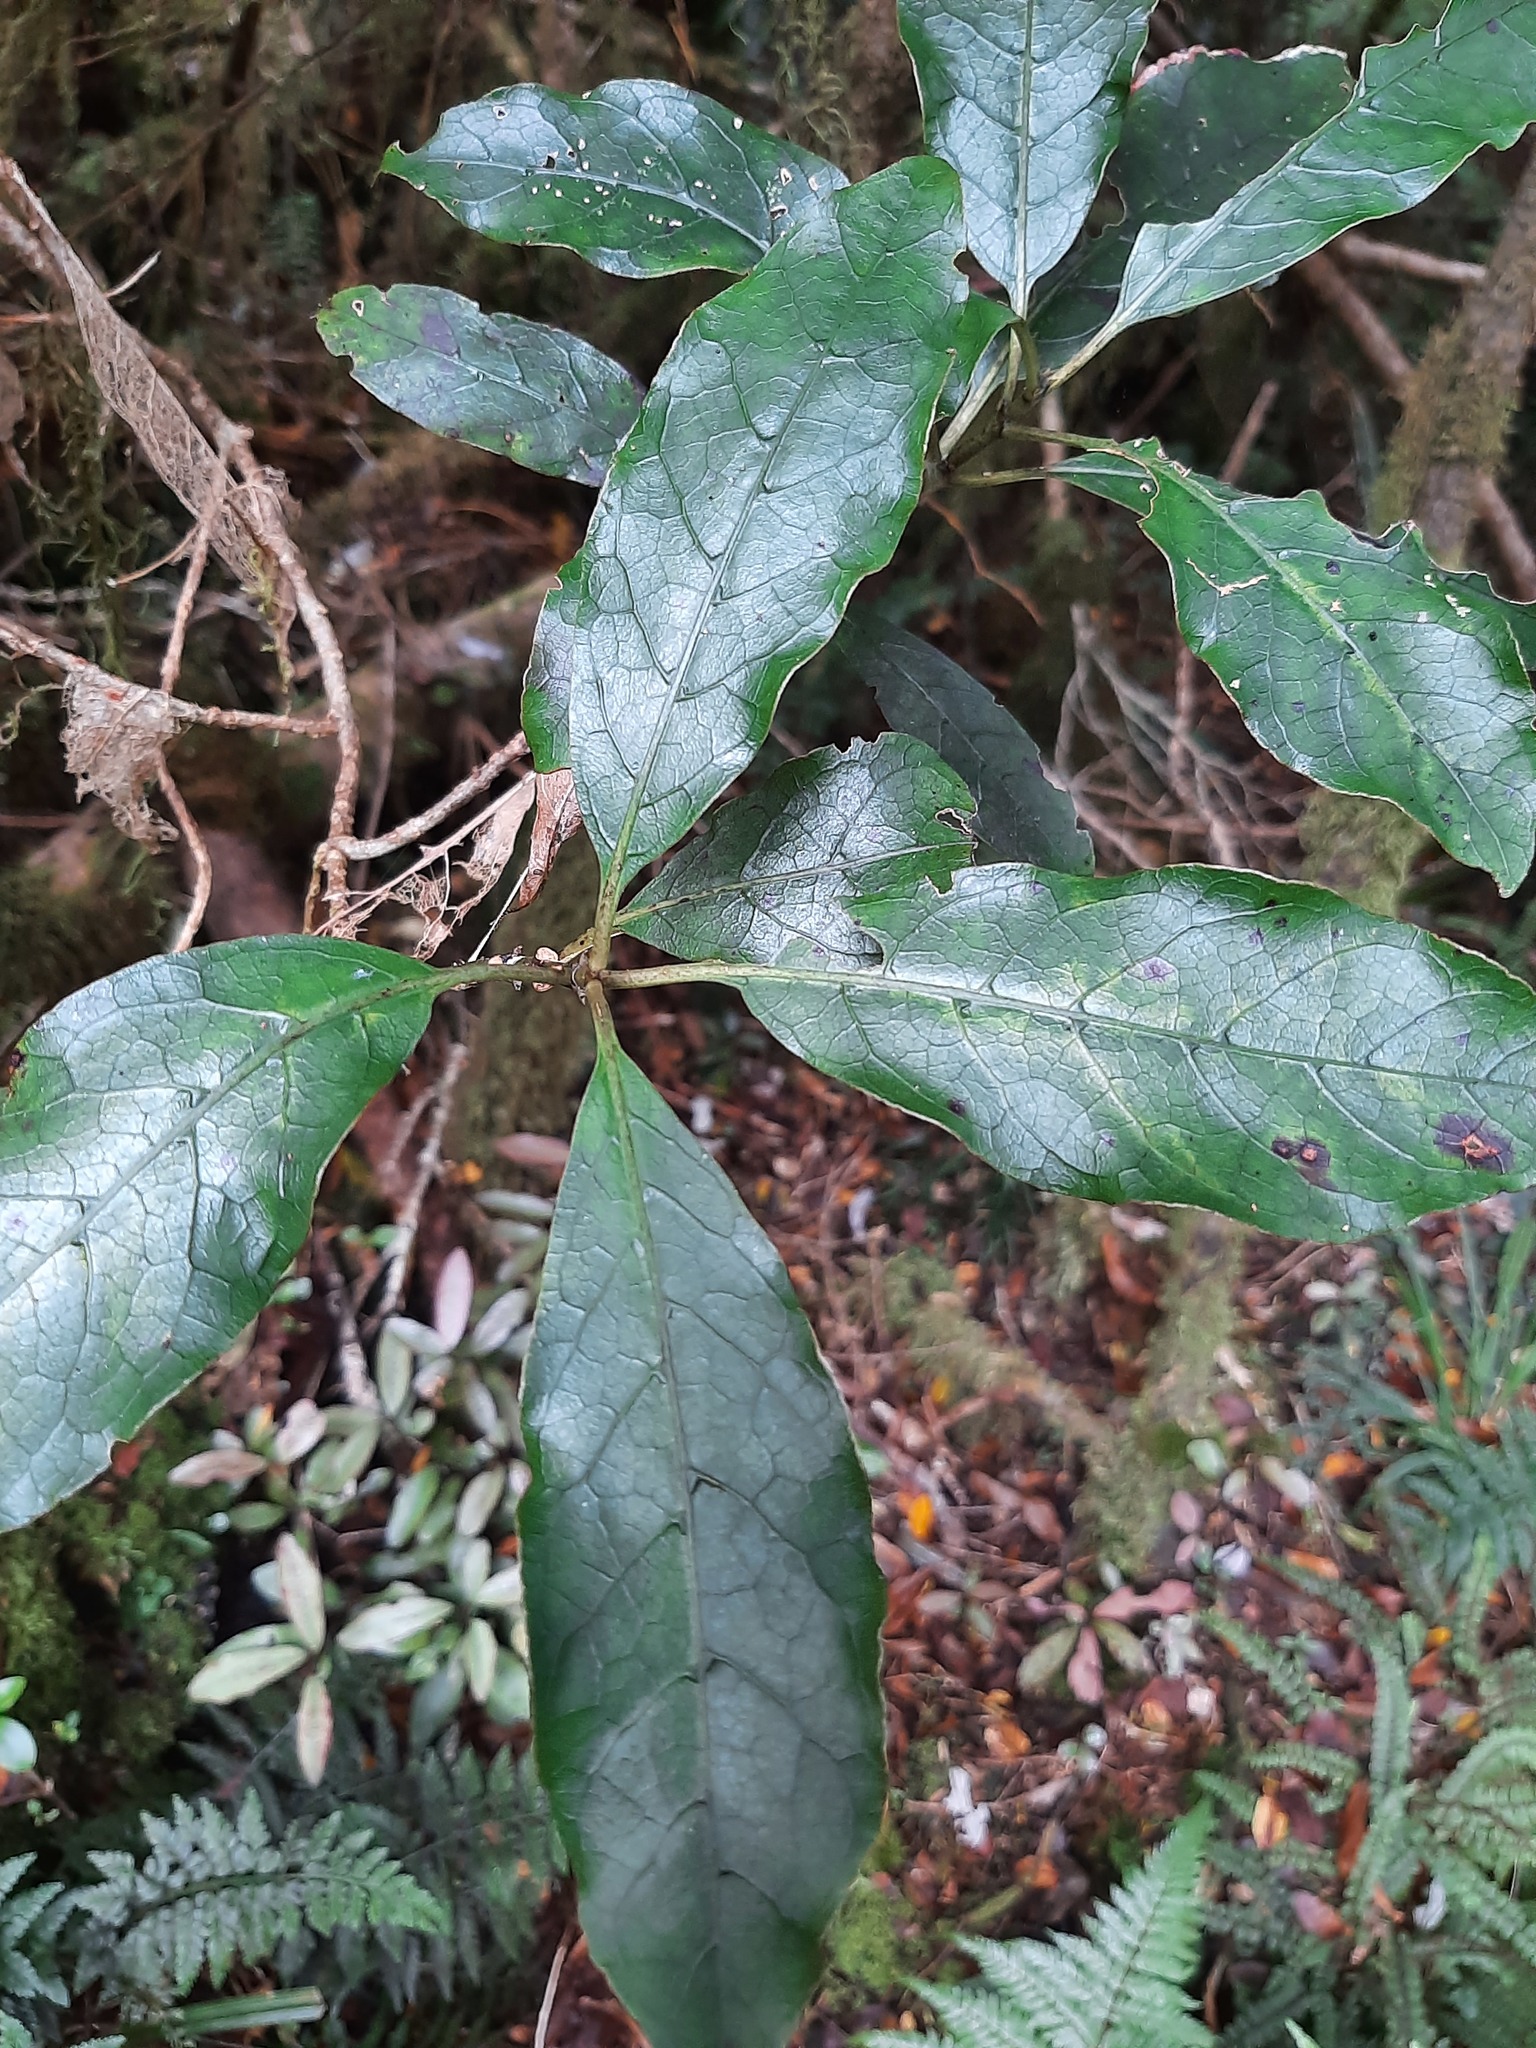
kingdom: Plantae
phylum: Tracheophyta
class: Magnoliopsida
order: Gentianales
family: Rubiaceae
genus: Coprosma
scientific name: Coprosma autumnalis
